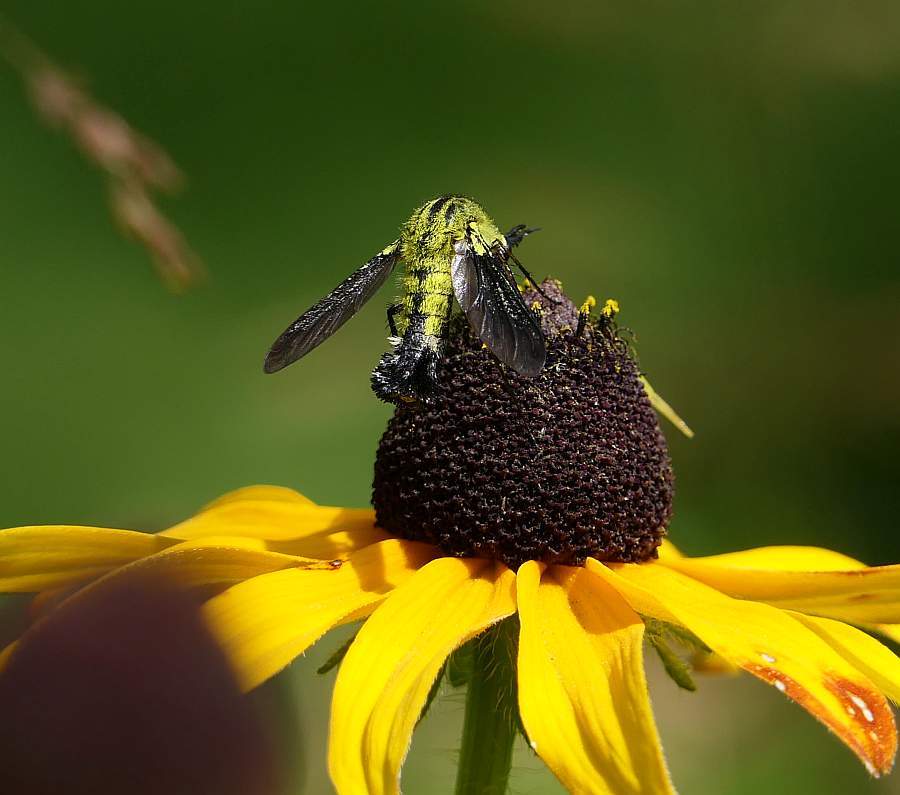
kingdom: Animalia
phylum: Arthropoda
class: Insecta
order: Diptera
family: Bombyliidae
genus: Lepidophora
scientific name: Lepidophora lutea
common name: Hunchback bee fly
